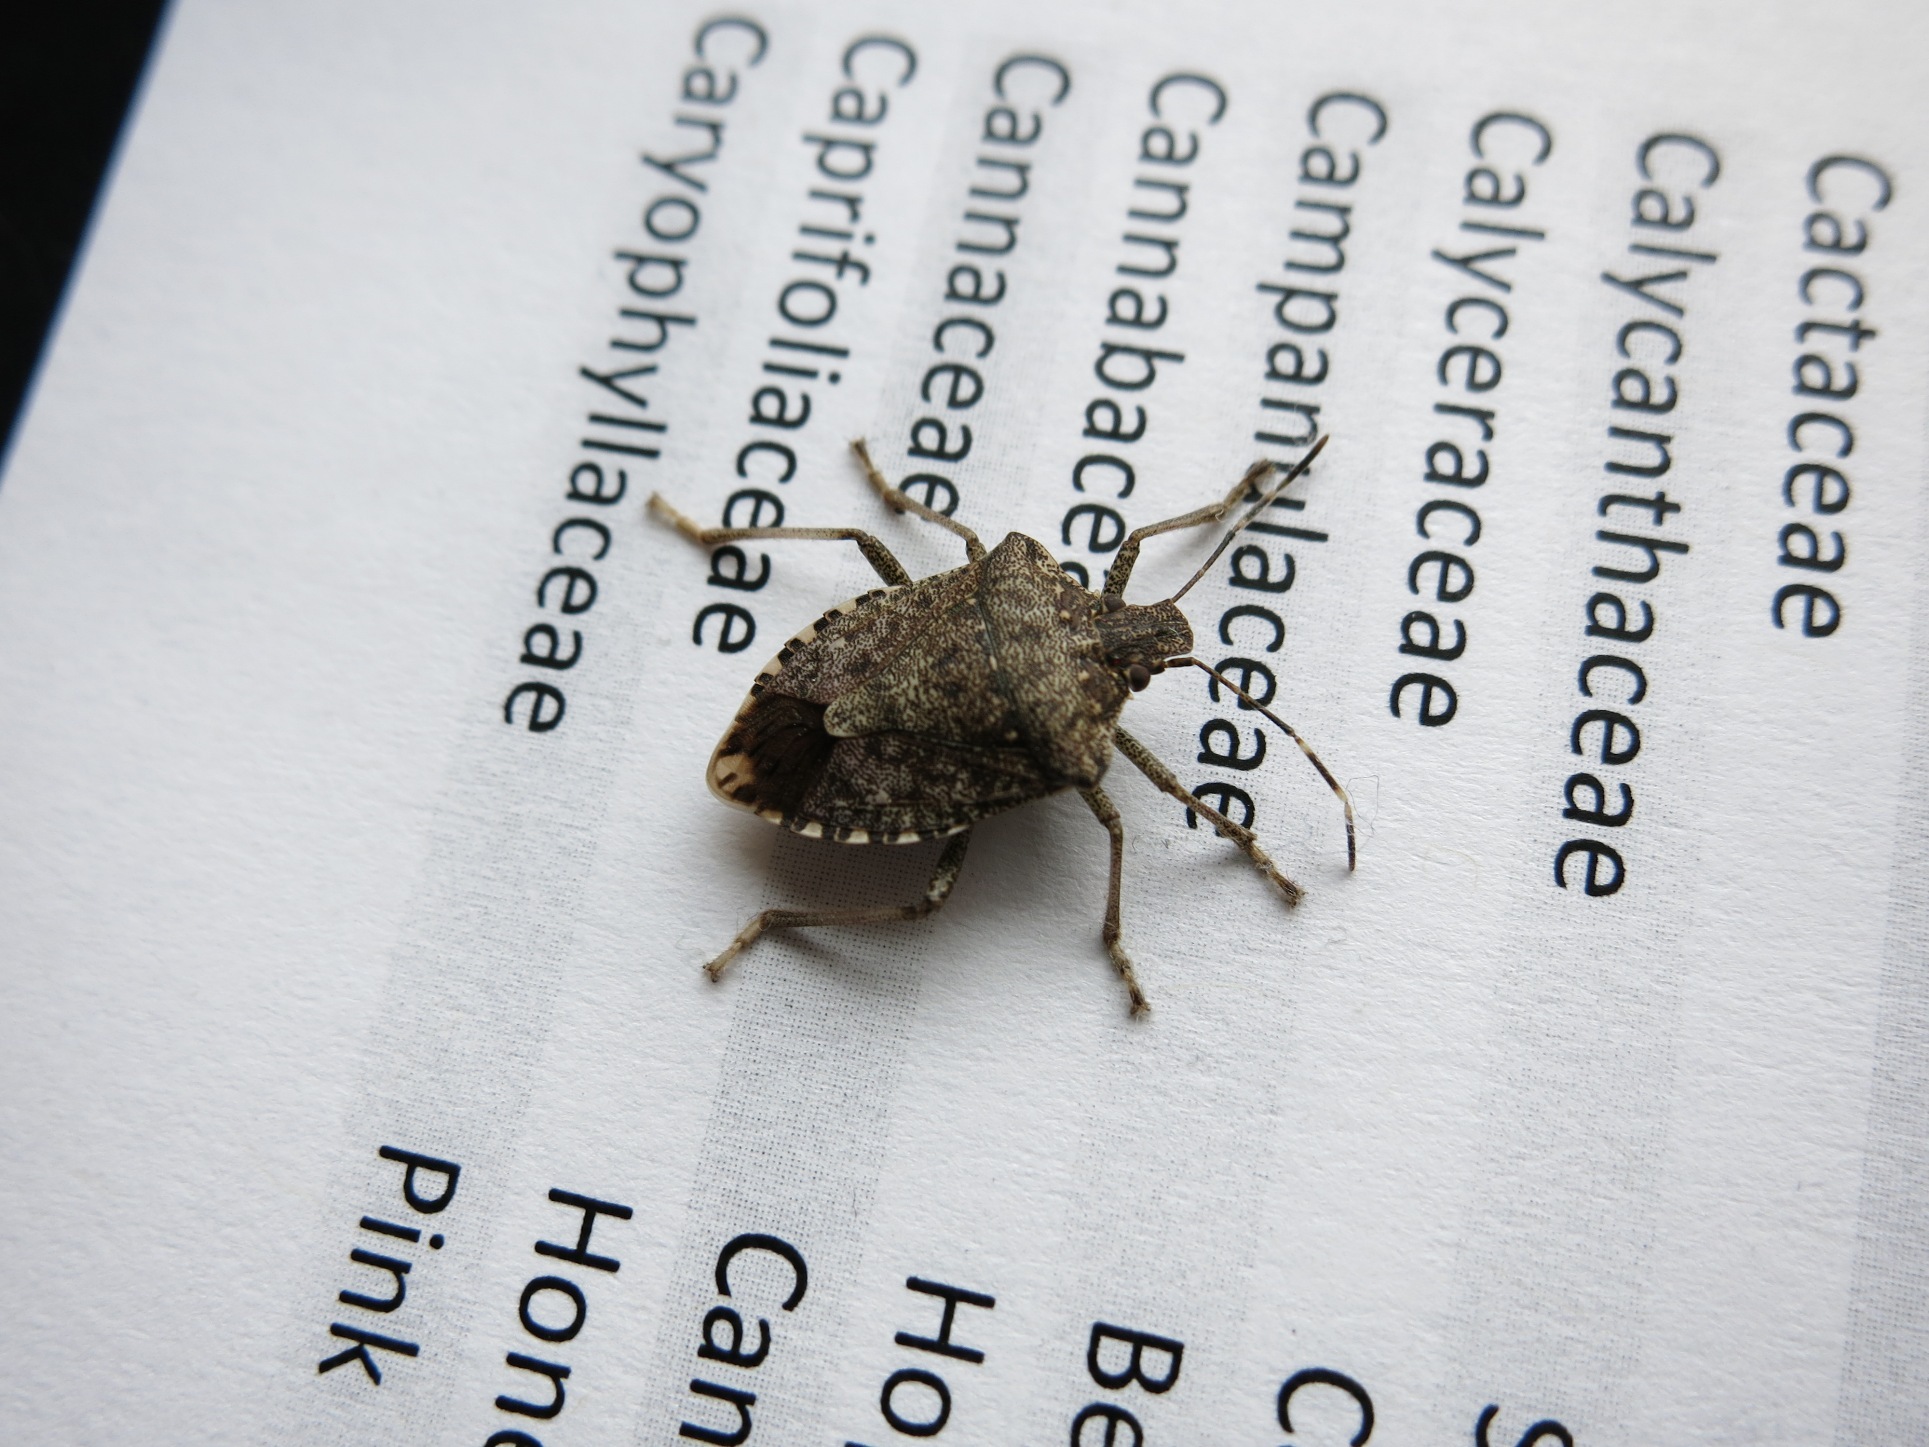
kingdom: Animalia
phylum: Arthropoda
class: Insecta
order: Hemiptera
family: Pentatomidae
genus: Halyomorpha
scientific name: Halyomorpha halys
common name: Brown marmorated stink bug
